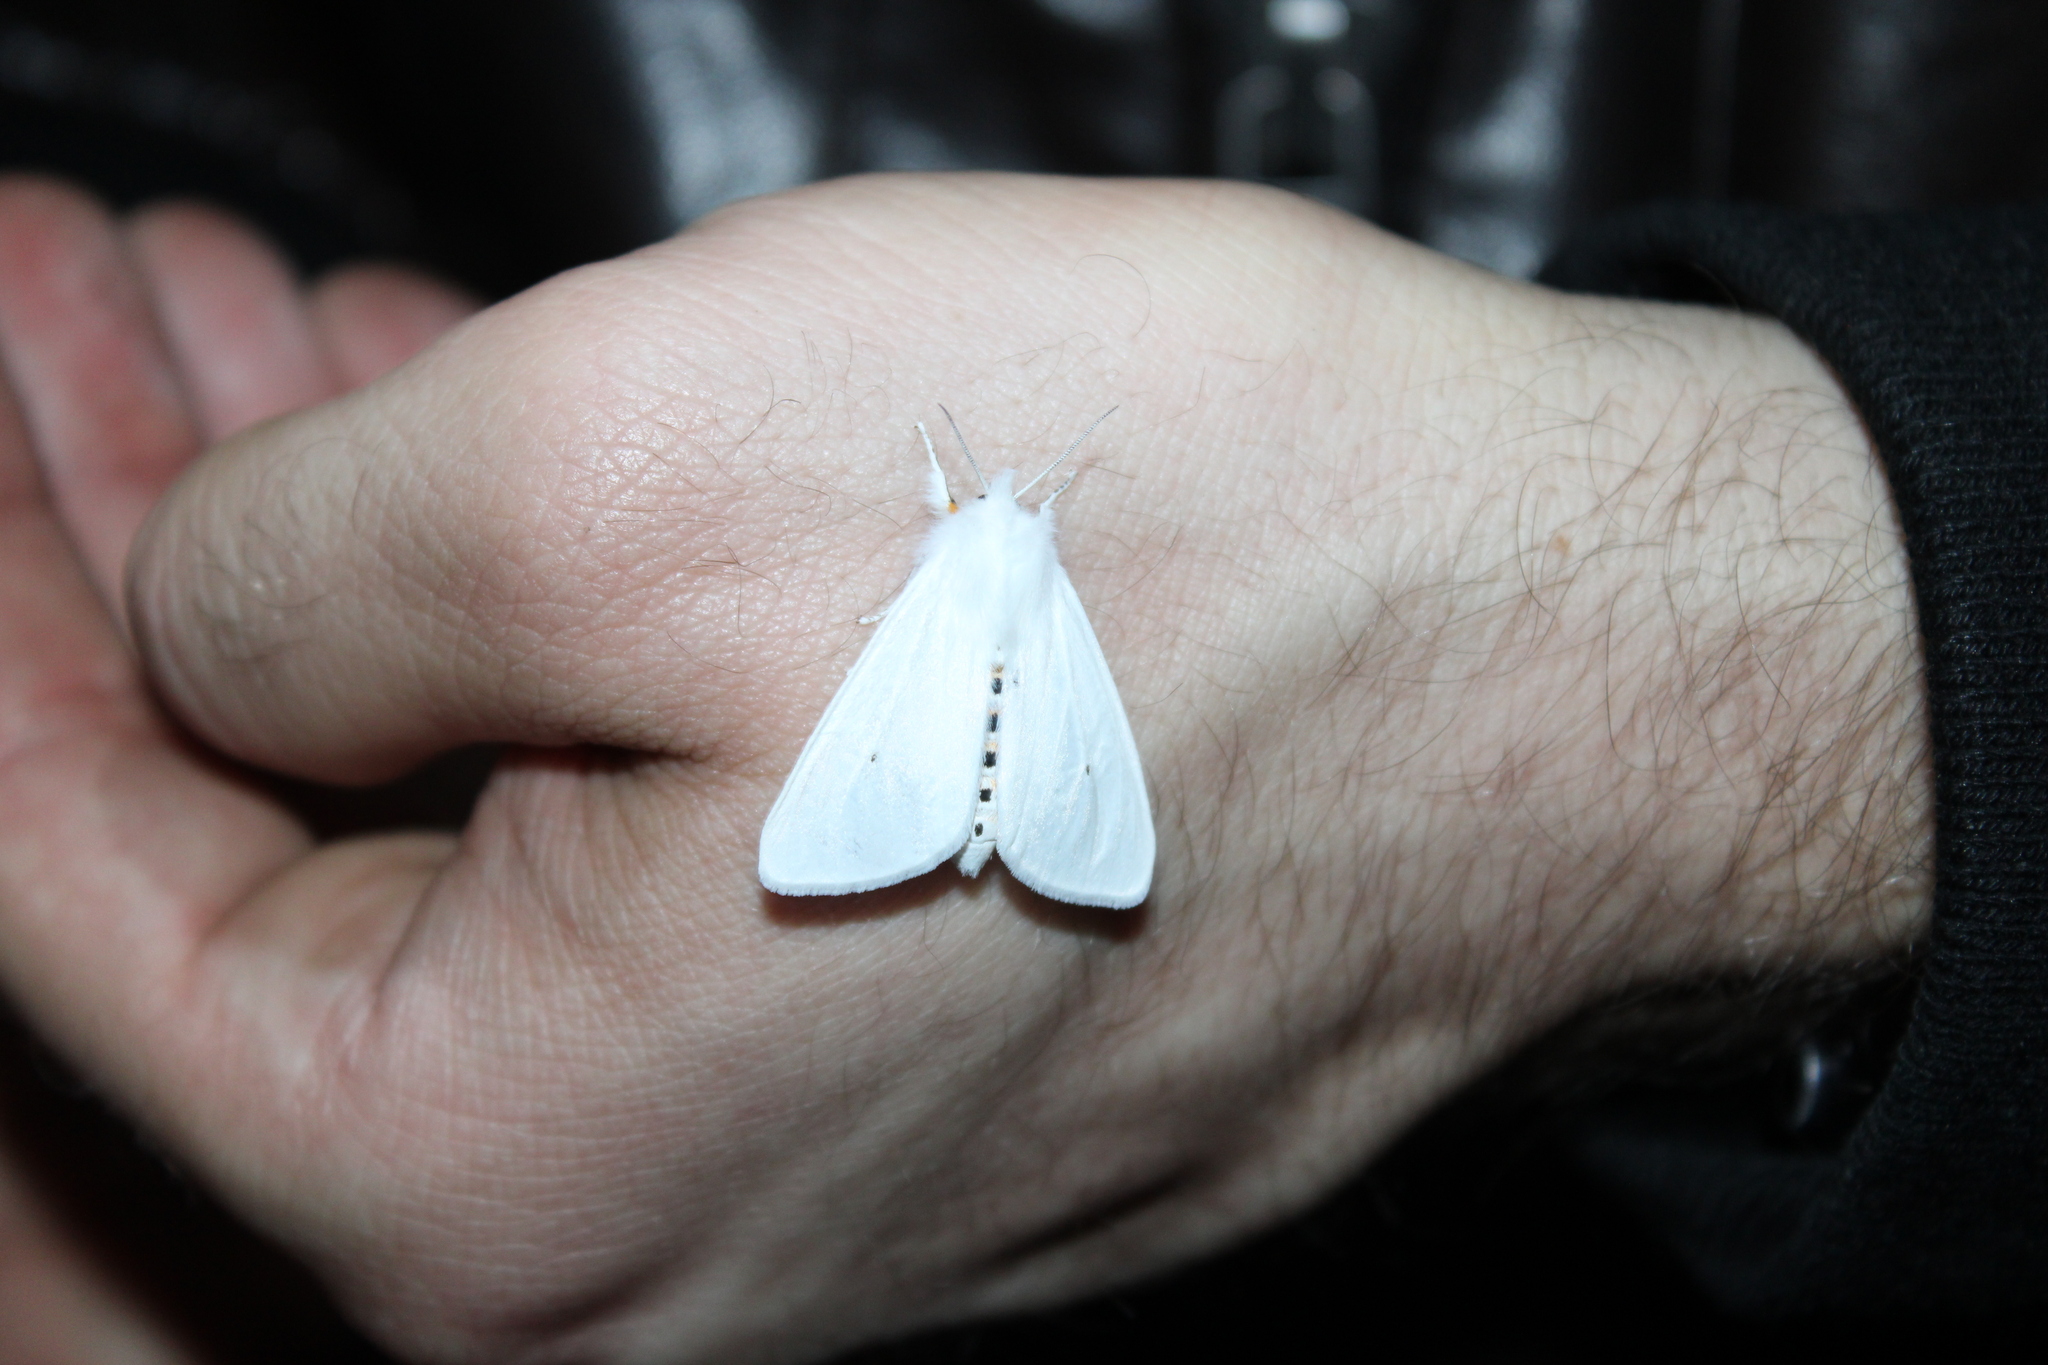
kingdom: Animalia
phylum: Arthropoda
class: Insecta
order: Lepidoptera
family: Erebidae
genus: Spilosoma
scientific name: Spilosoma virginica
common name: Virginia tiger moth
